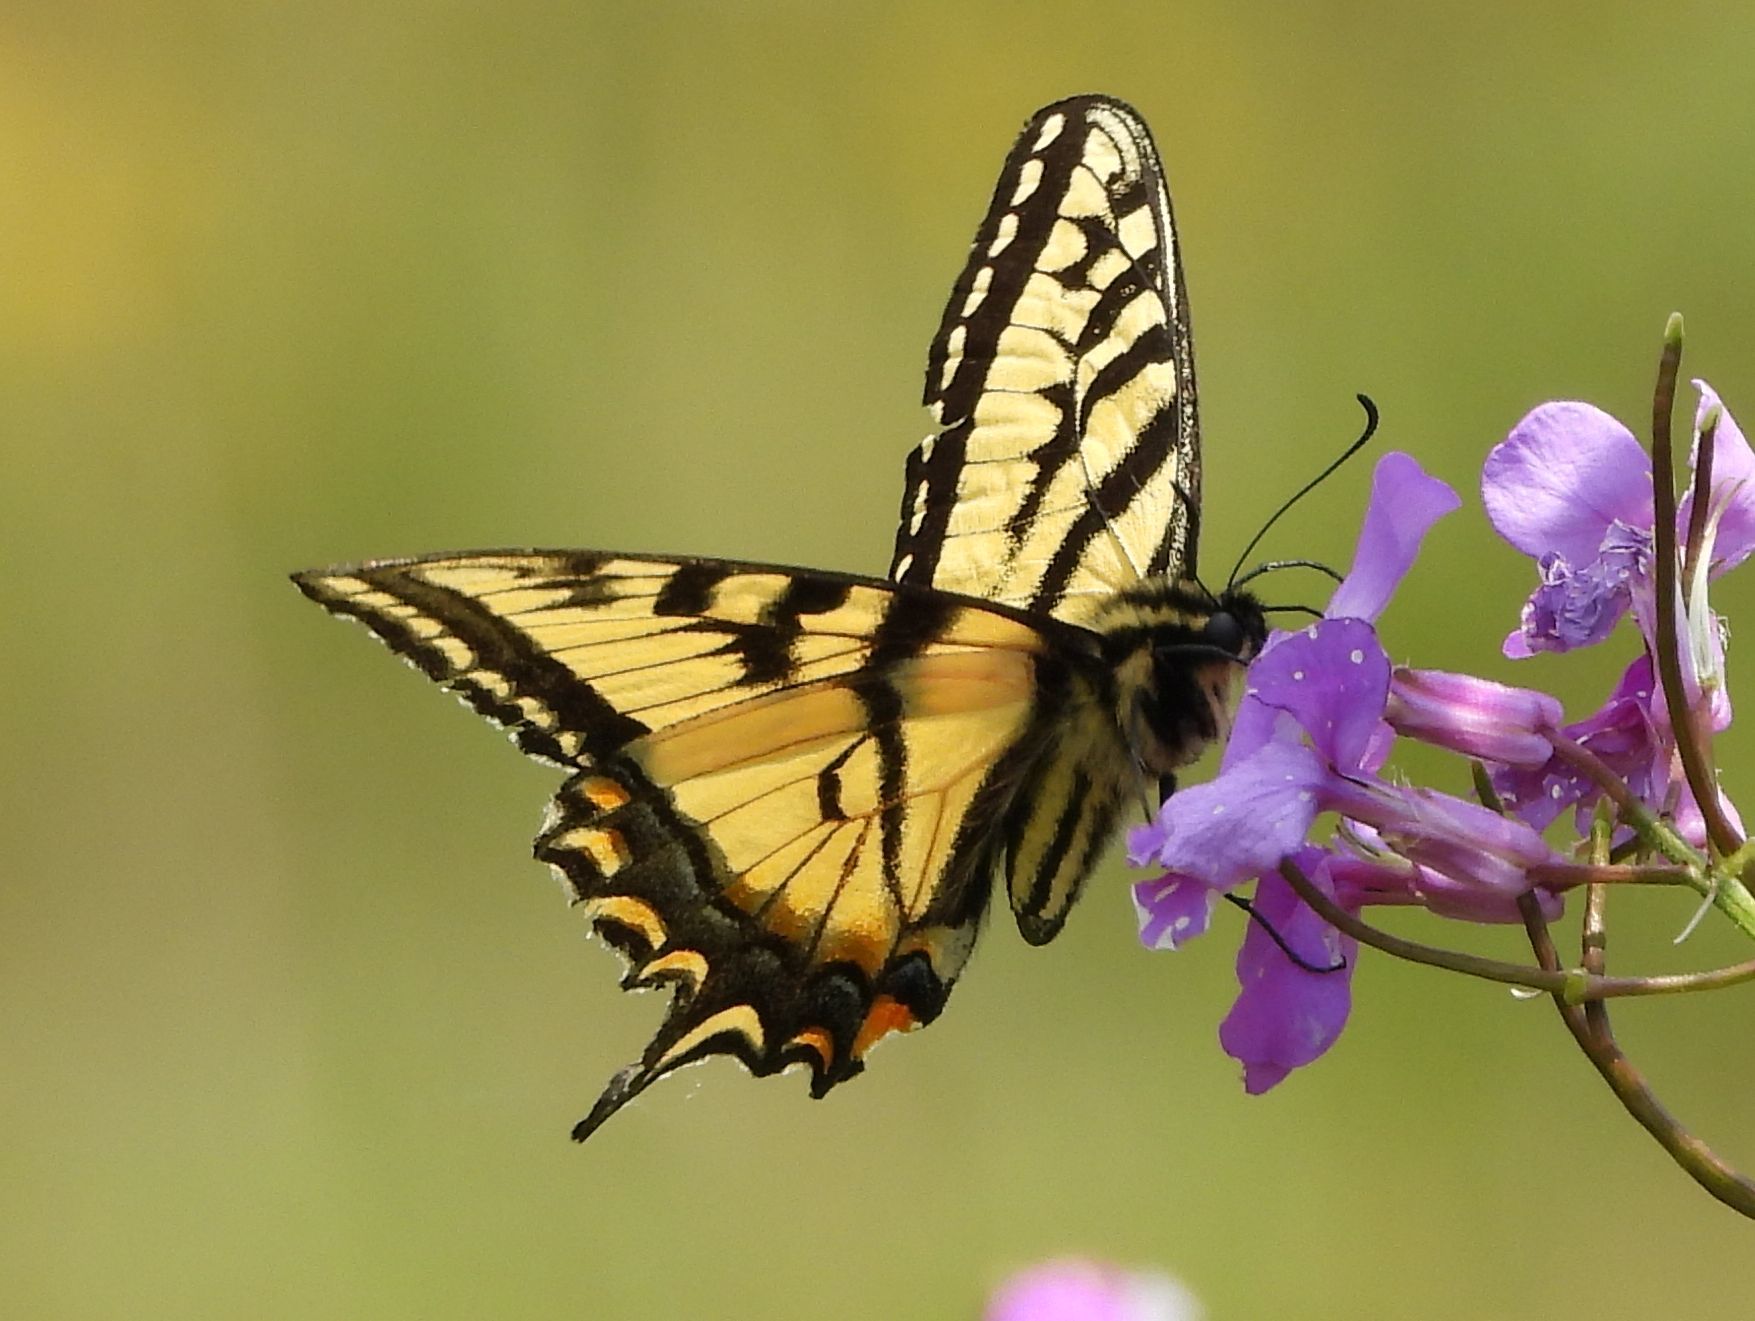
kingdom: Animalia
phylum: Arthropoda
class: Insecta
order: Lepidoptera
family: Papilionidae
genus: Papilio
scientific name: Papilio canadensis
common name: Canadian tiger swallowtail
